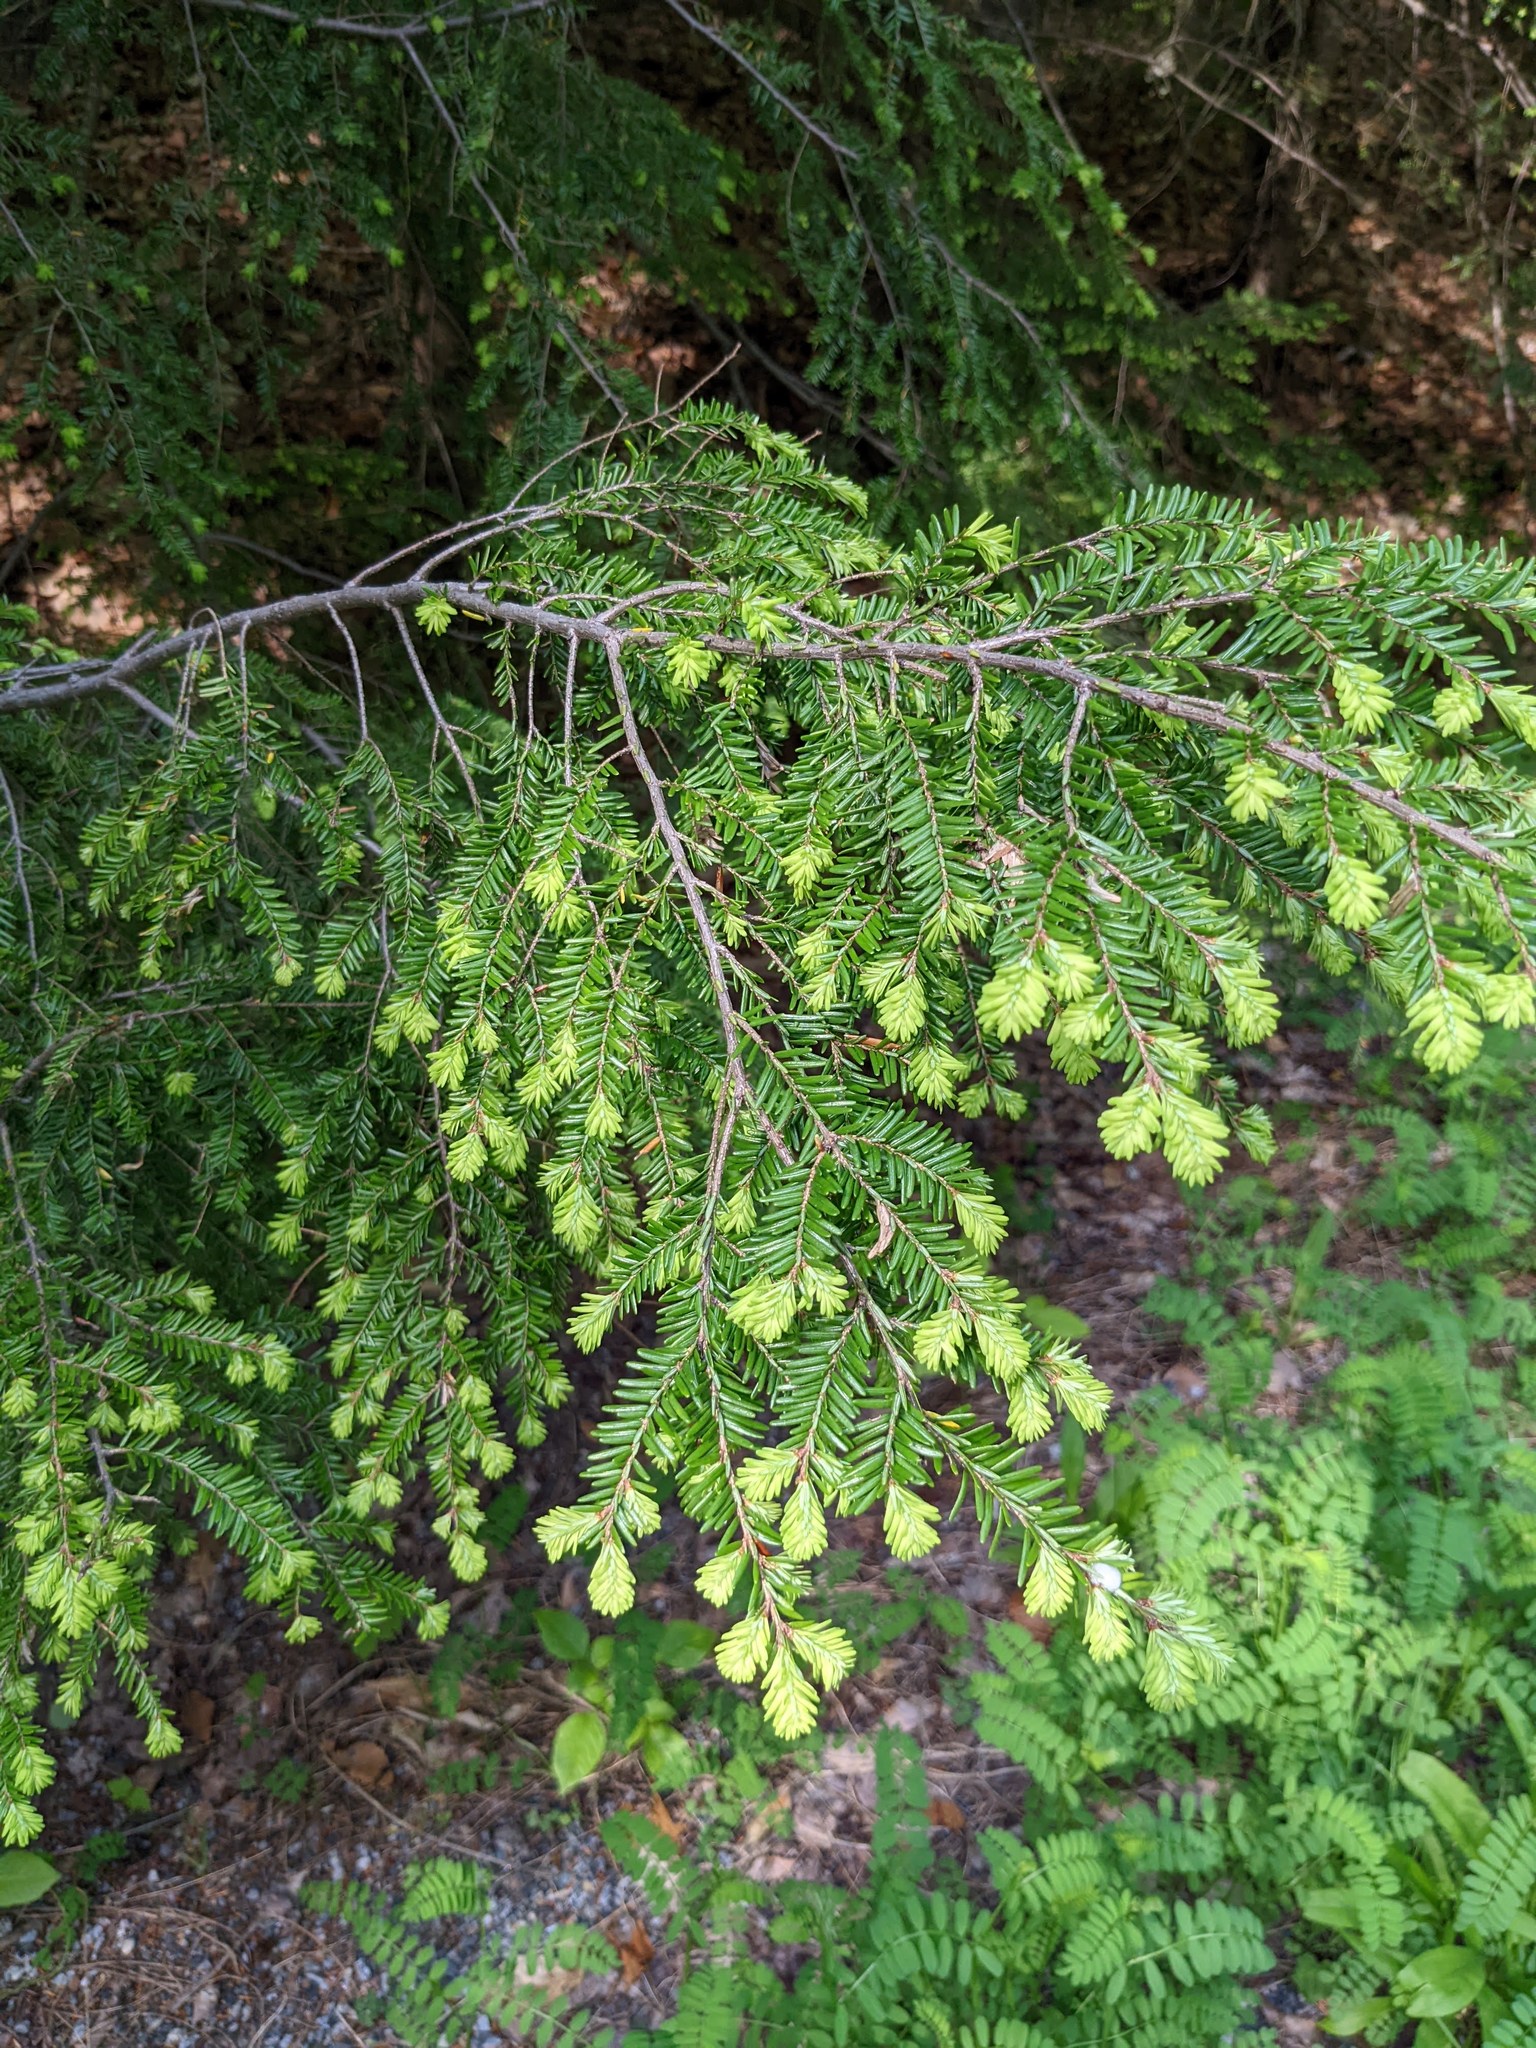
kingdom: Plantae
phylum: Tracheophyta
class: Pinopsida
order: Pinales
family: Pinaceae
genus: Tsuga
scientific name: Tsuga canadensis
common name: Eastern hemlock
